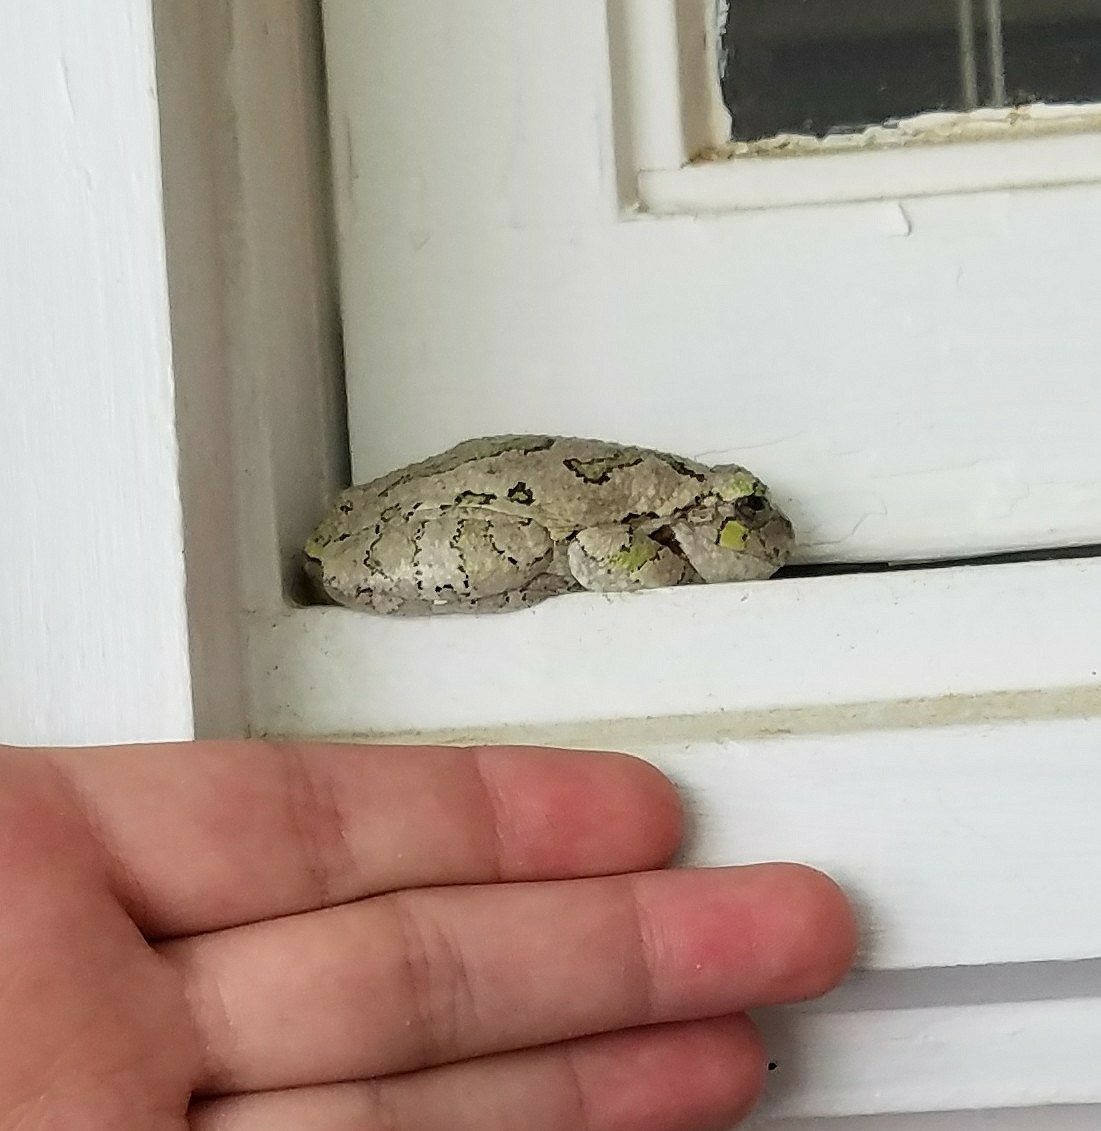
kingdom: Animalia
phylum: Chordata
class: Amphibia
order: Anura
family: Hylidae
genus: Hyla
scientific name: Hyla
